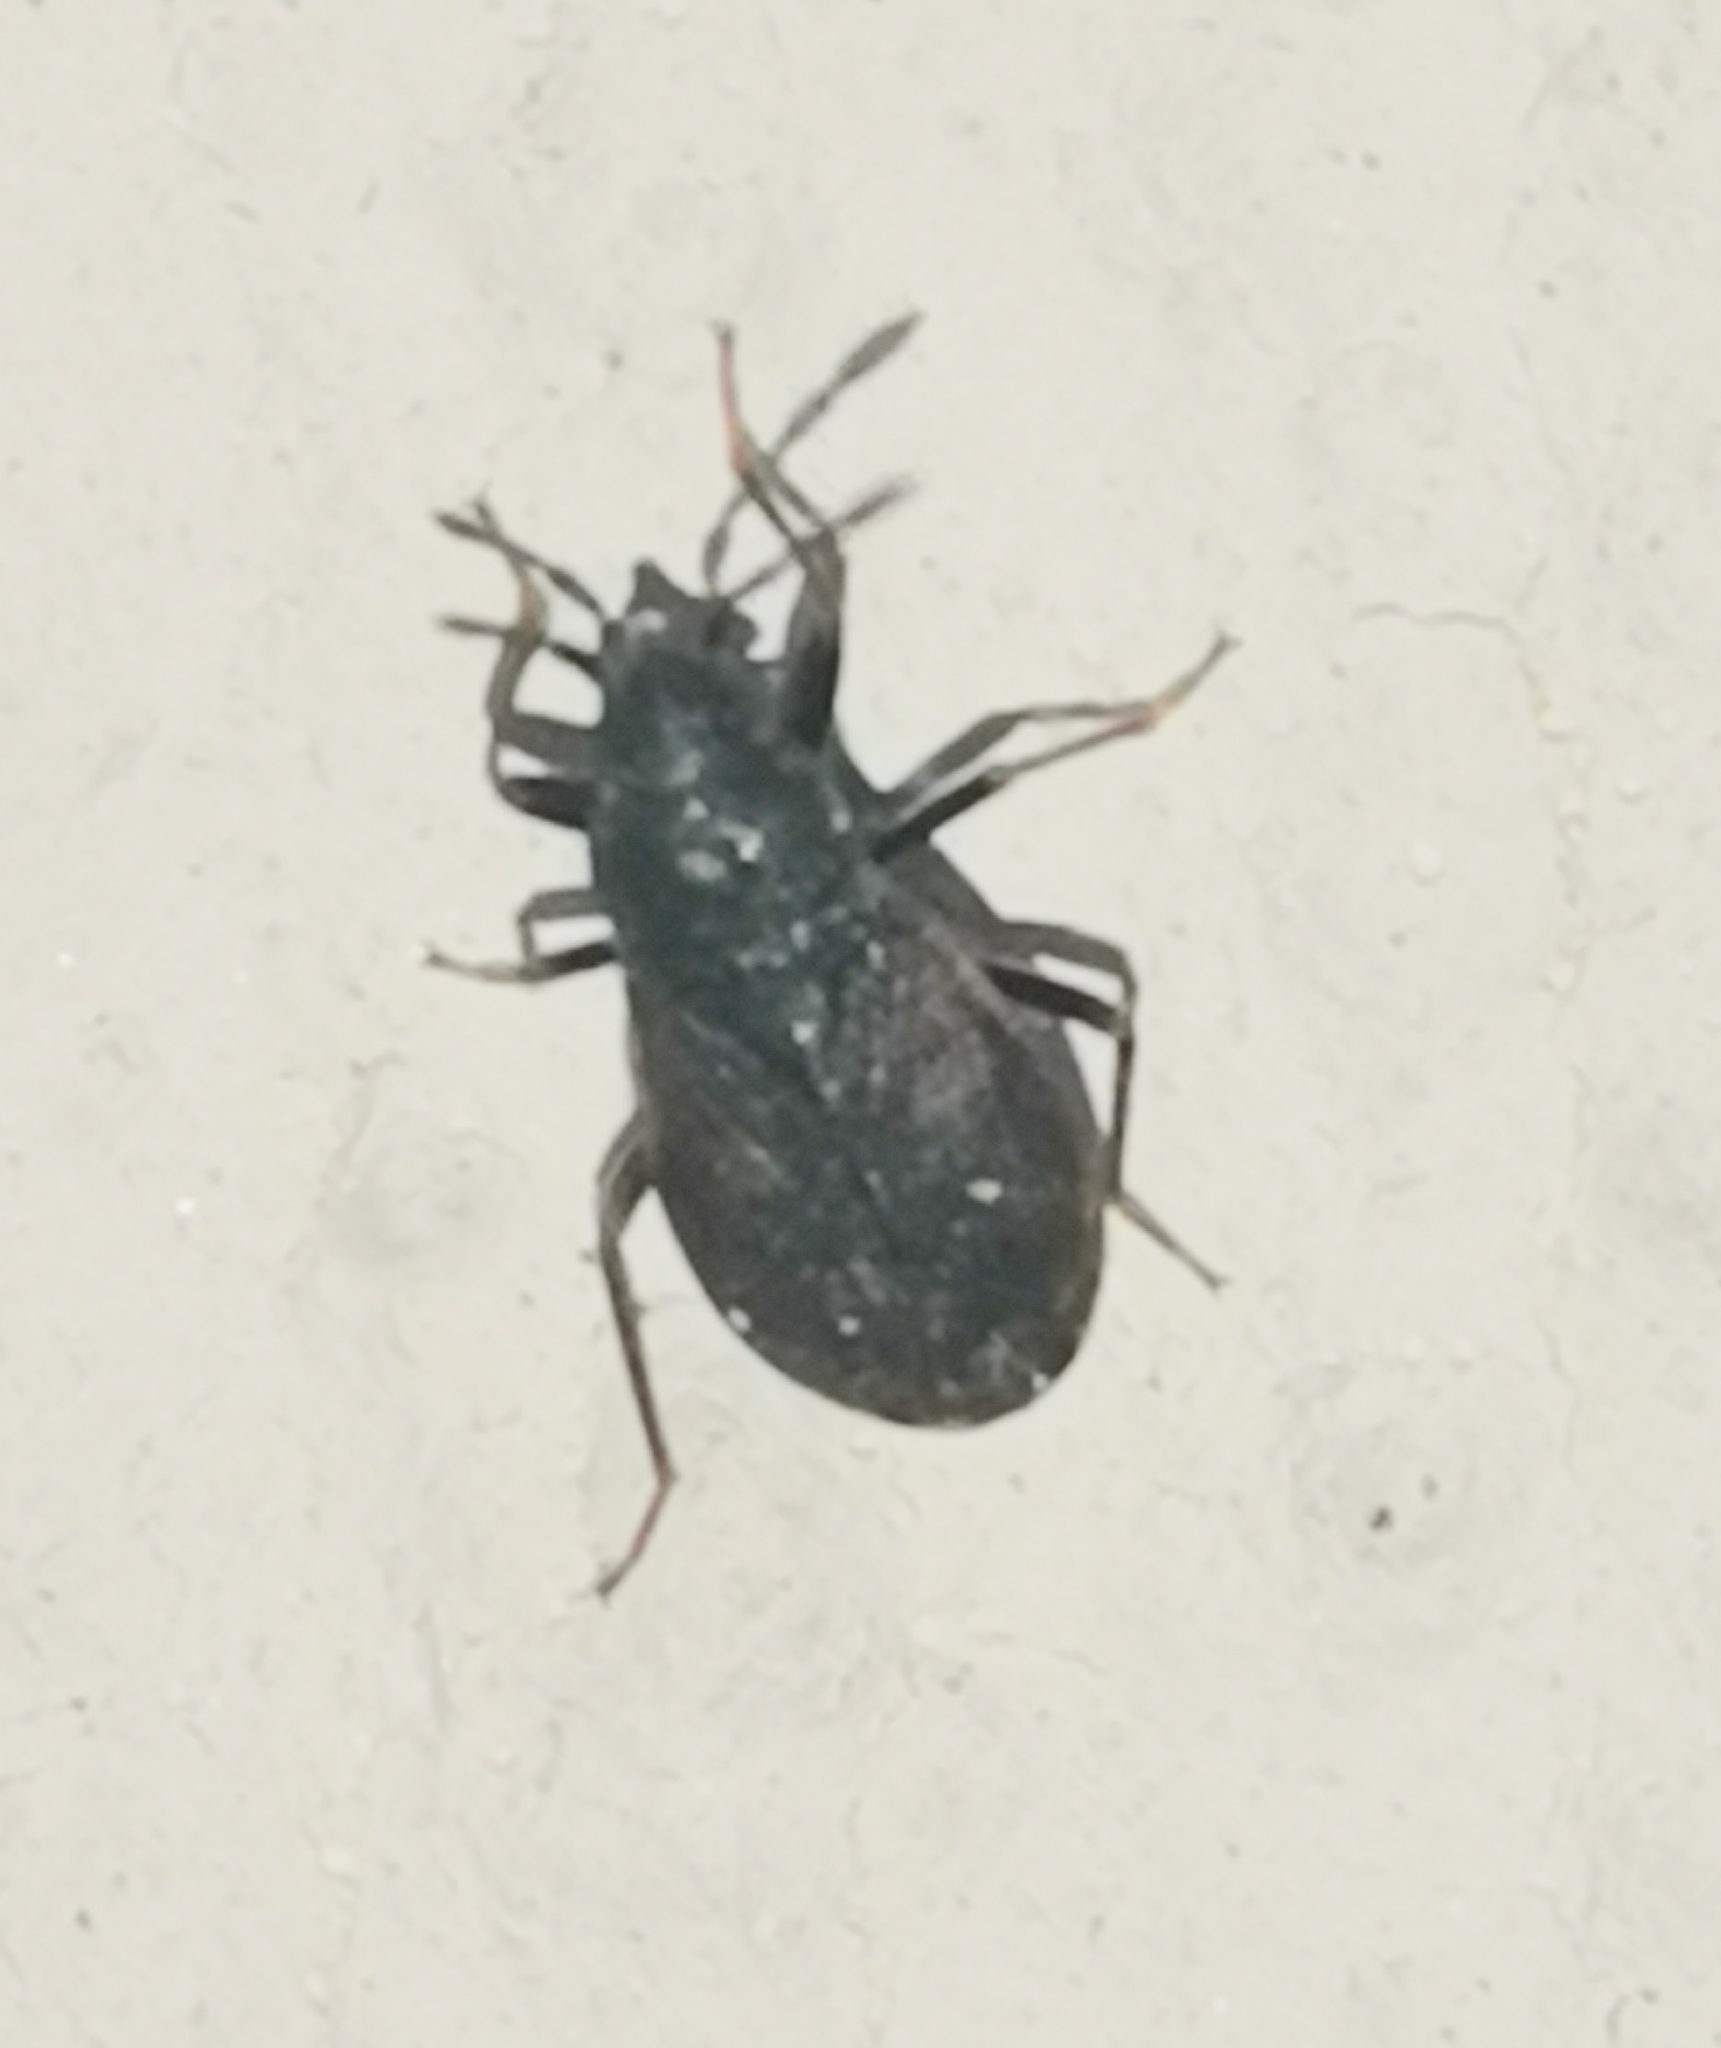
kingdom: Animalia
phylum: Arthropoda
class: Insecta
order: Hemiptera
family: Rhyparochromidae
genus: Drymus
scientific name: Drymus brunneus
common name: Seed bug
